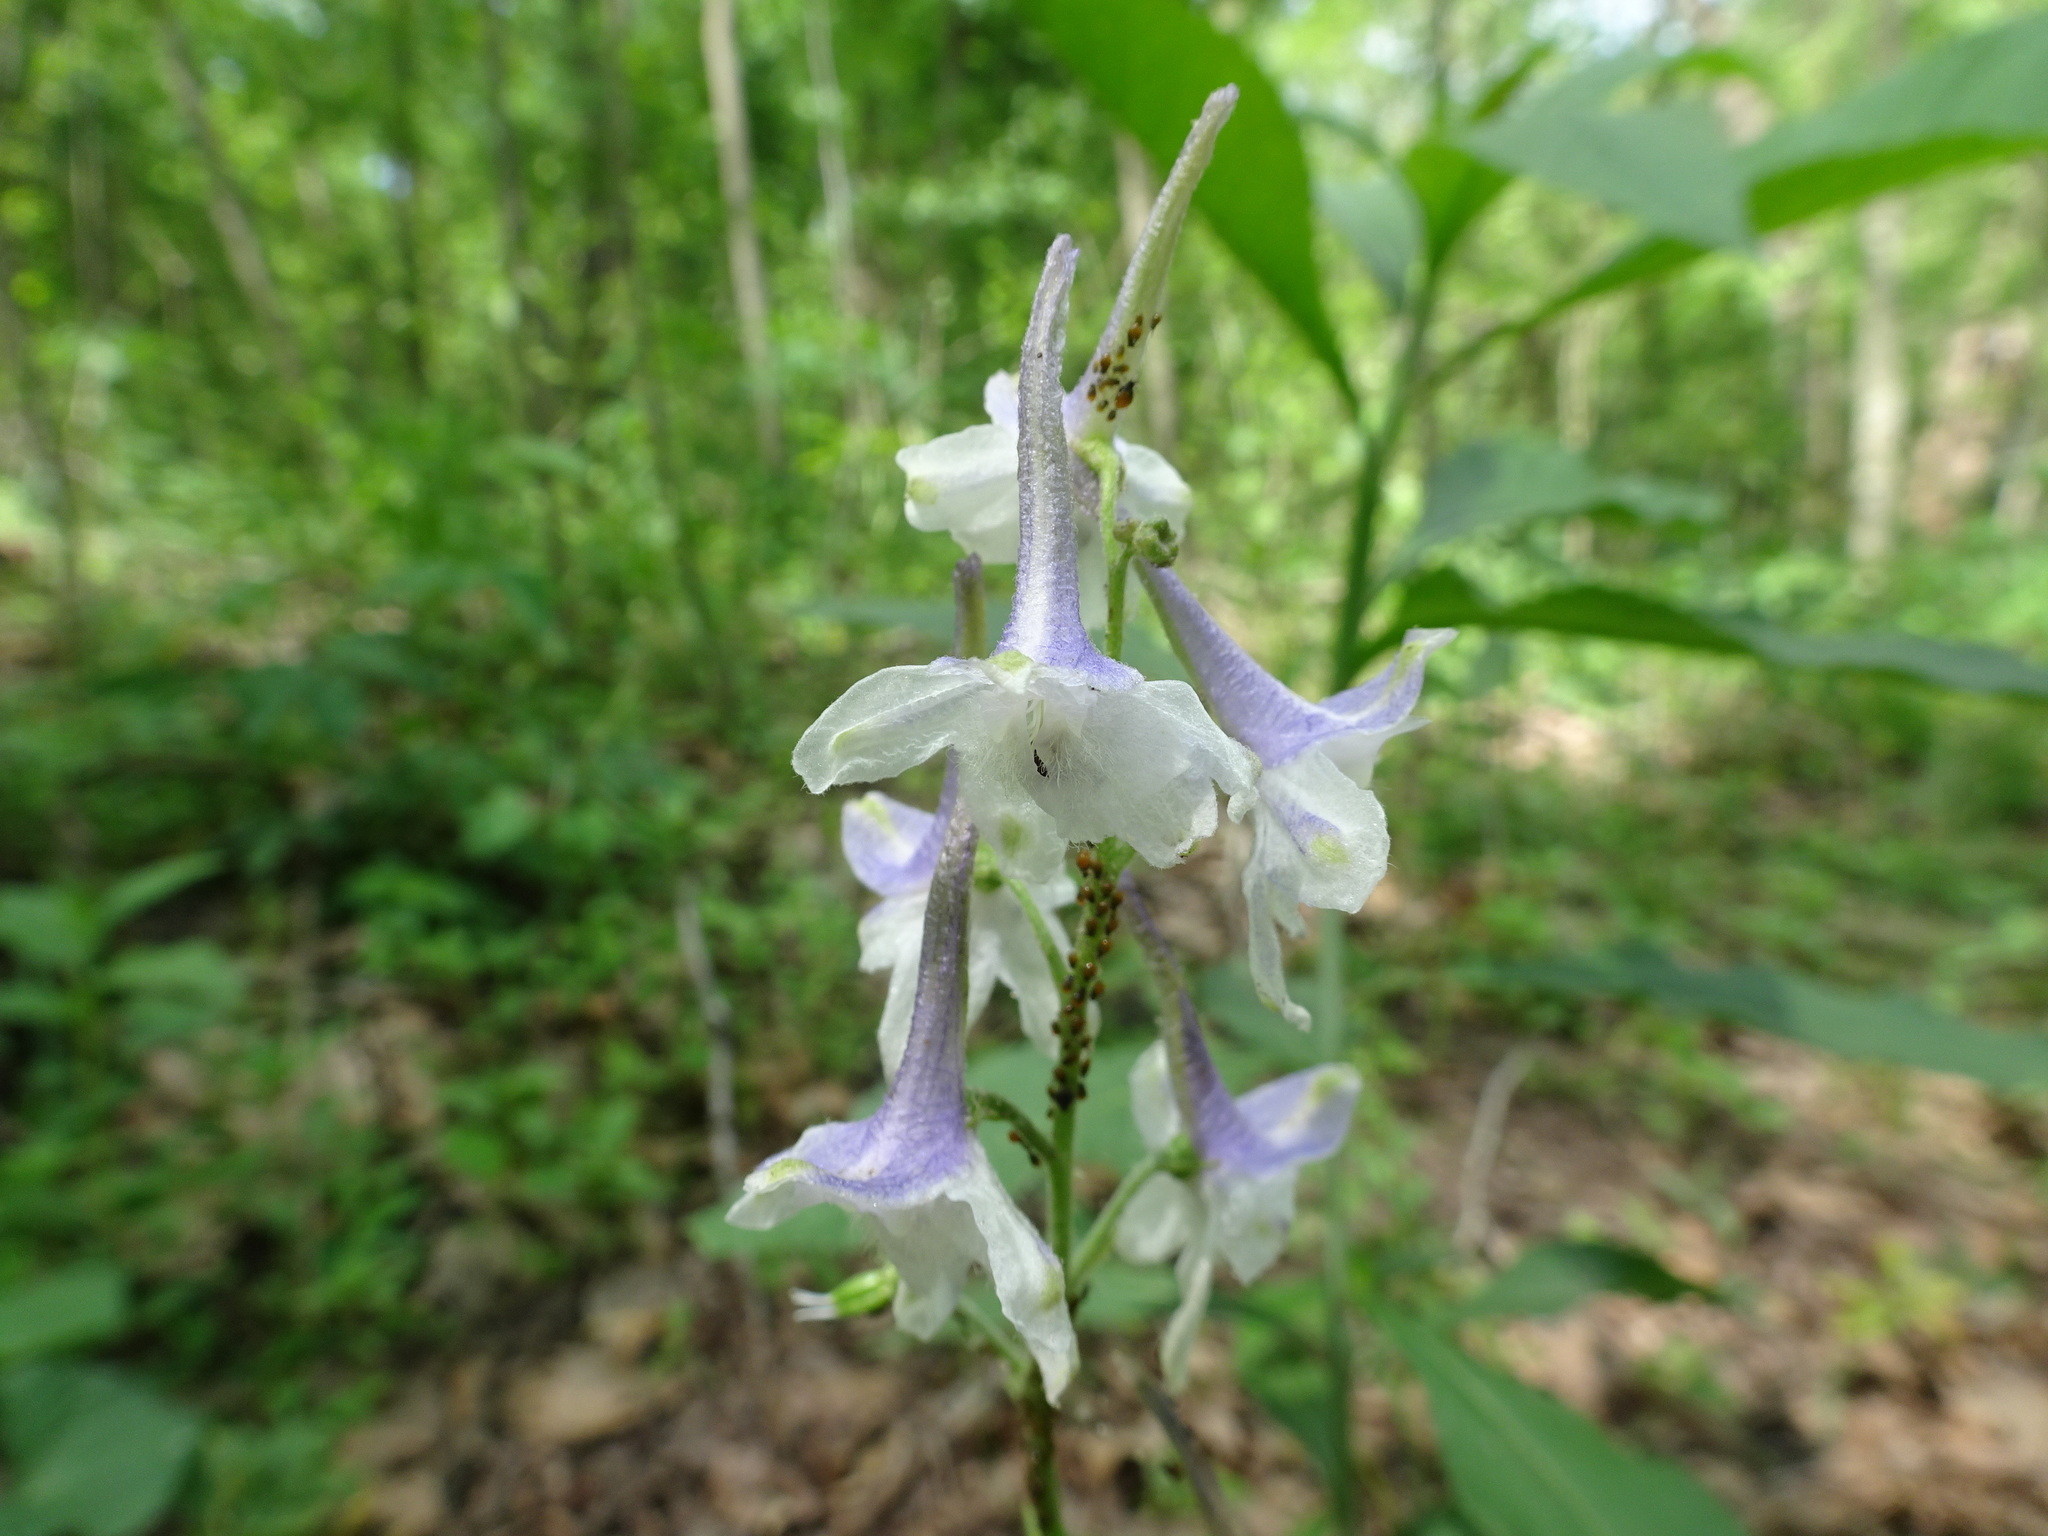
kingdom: Plantae
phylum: Tracheophyta
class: Magnoliopsida
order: Ranunculales
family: Ranunculaceae
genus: Delphinium
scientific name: Delphinium tricorne
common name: Dwarf larkspur
